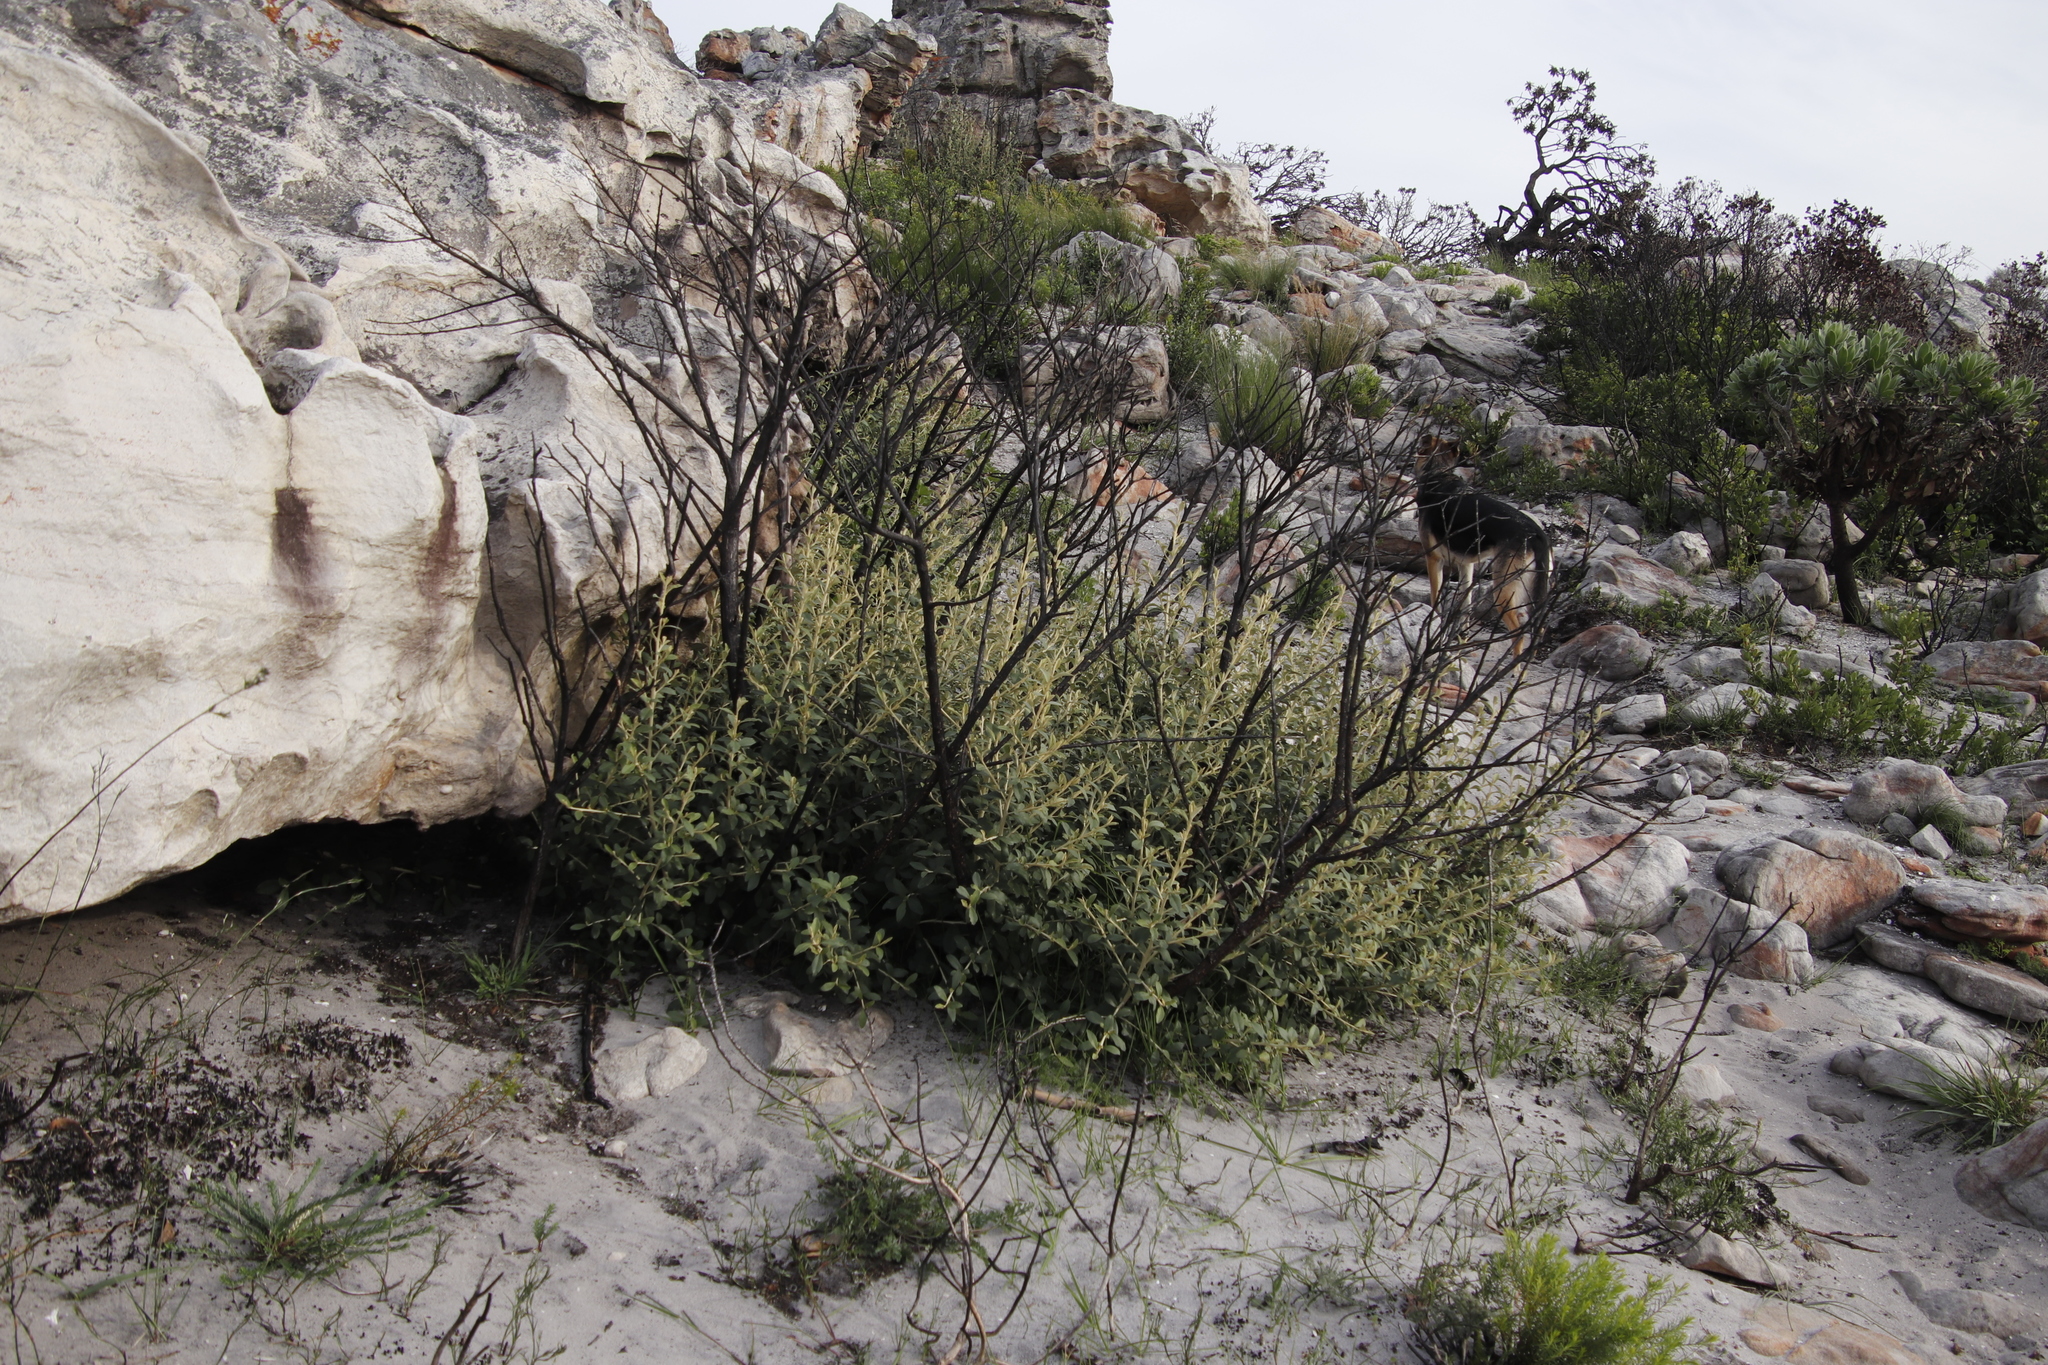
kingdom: Plantae
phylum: Tracheophyta
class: Magnoliopsida
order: Asterales
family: Asteraceae
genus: Tarchonanthus
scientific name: Tarchonanthus littoralis
